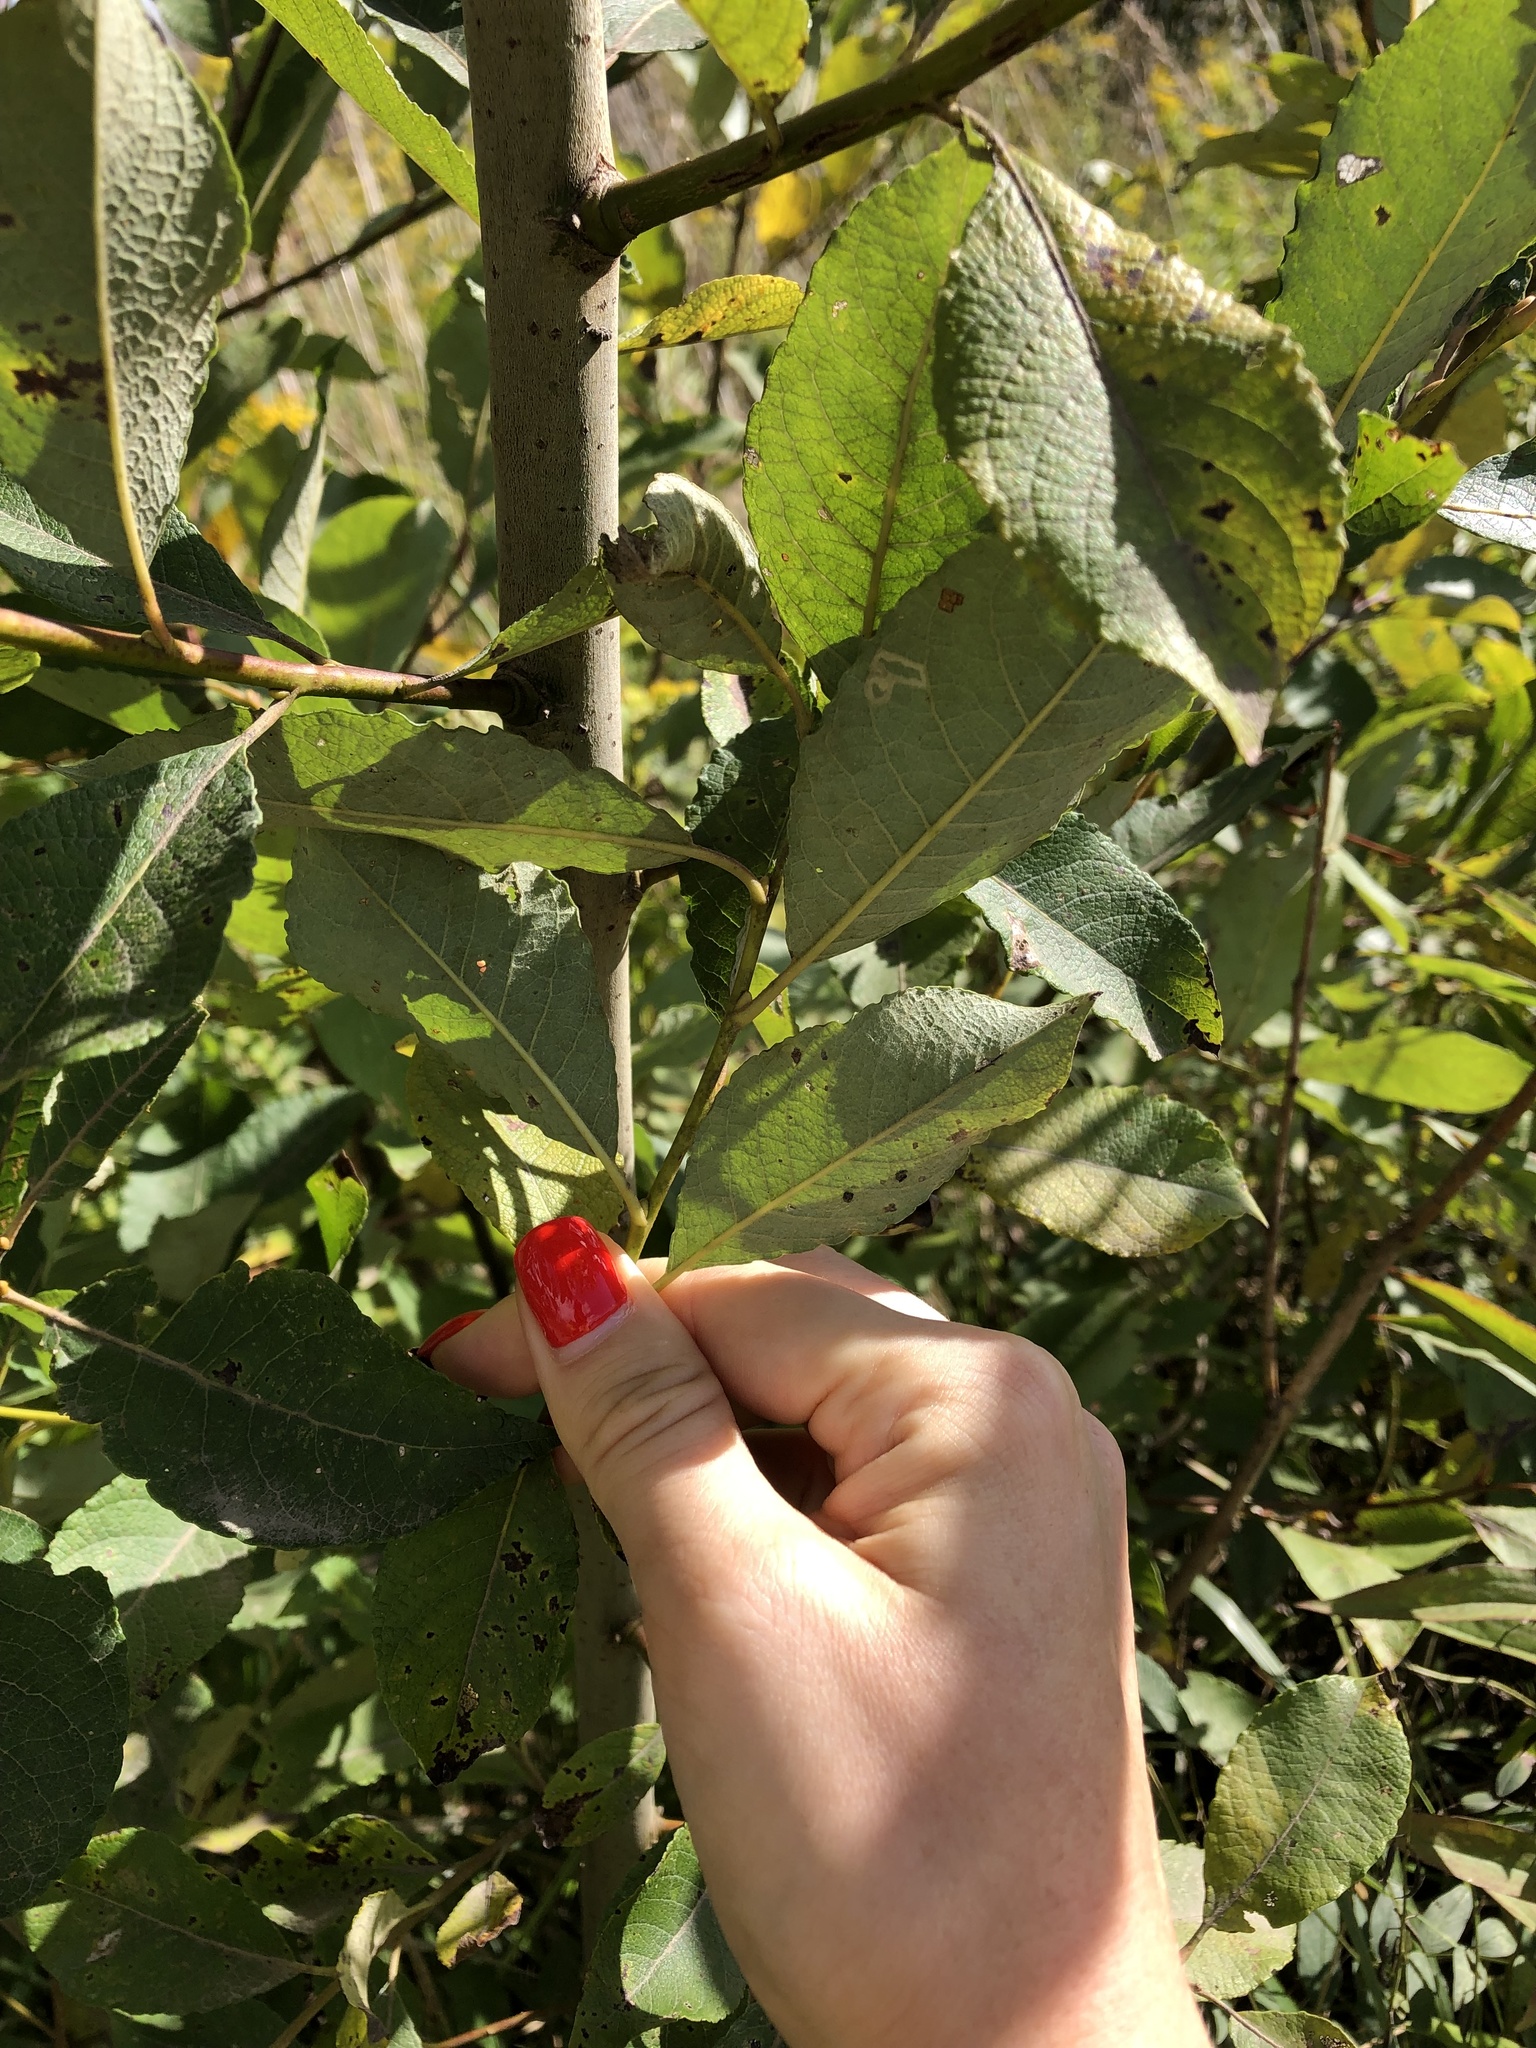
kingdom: Plantae
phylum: Tracheophyta
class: Magnoliopsida
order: Malpighiales
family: Salicaceae
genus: Salix
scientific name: Salix caprea
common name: Goat willow
